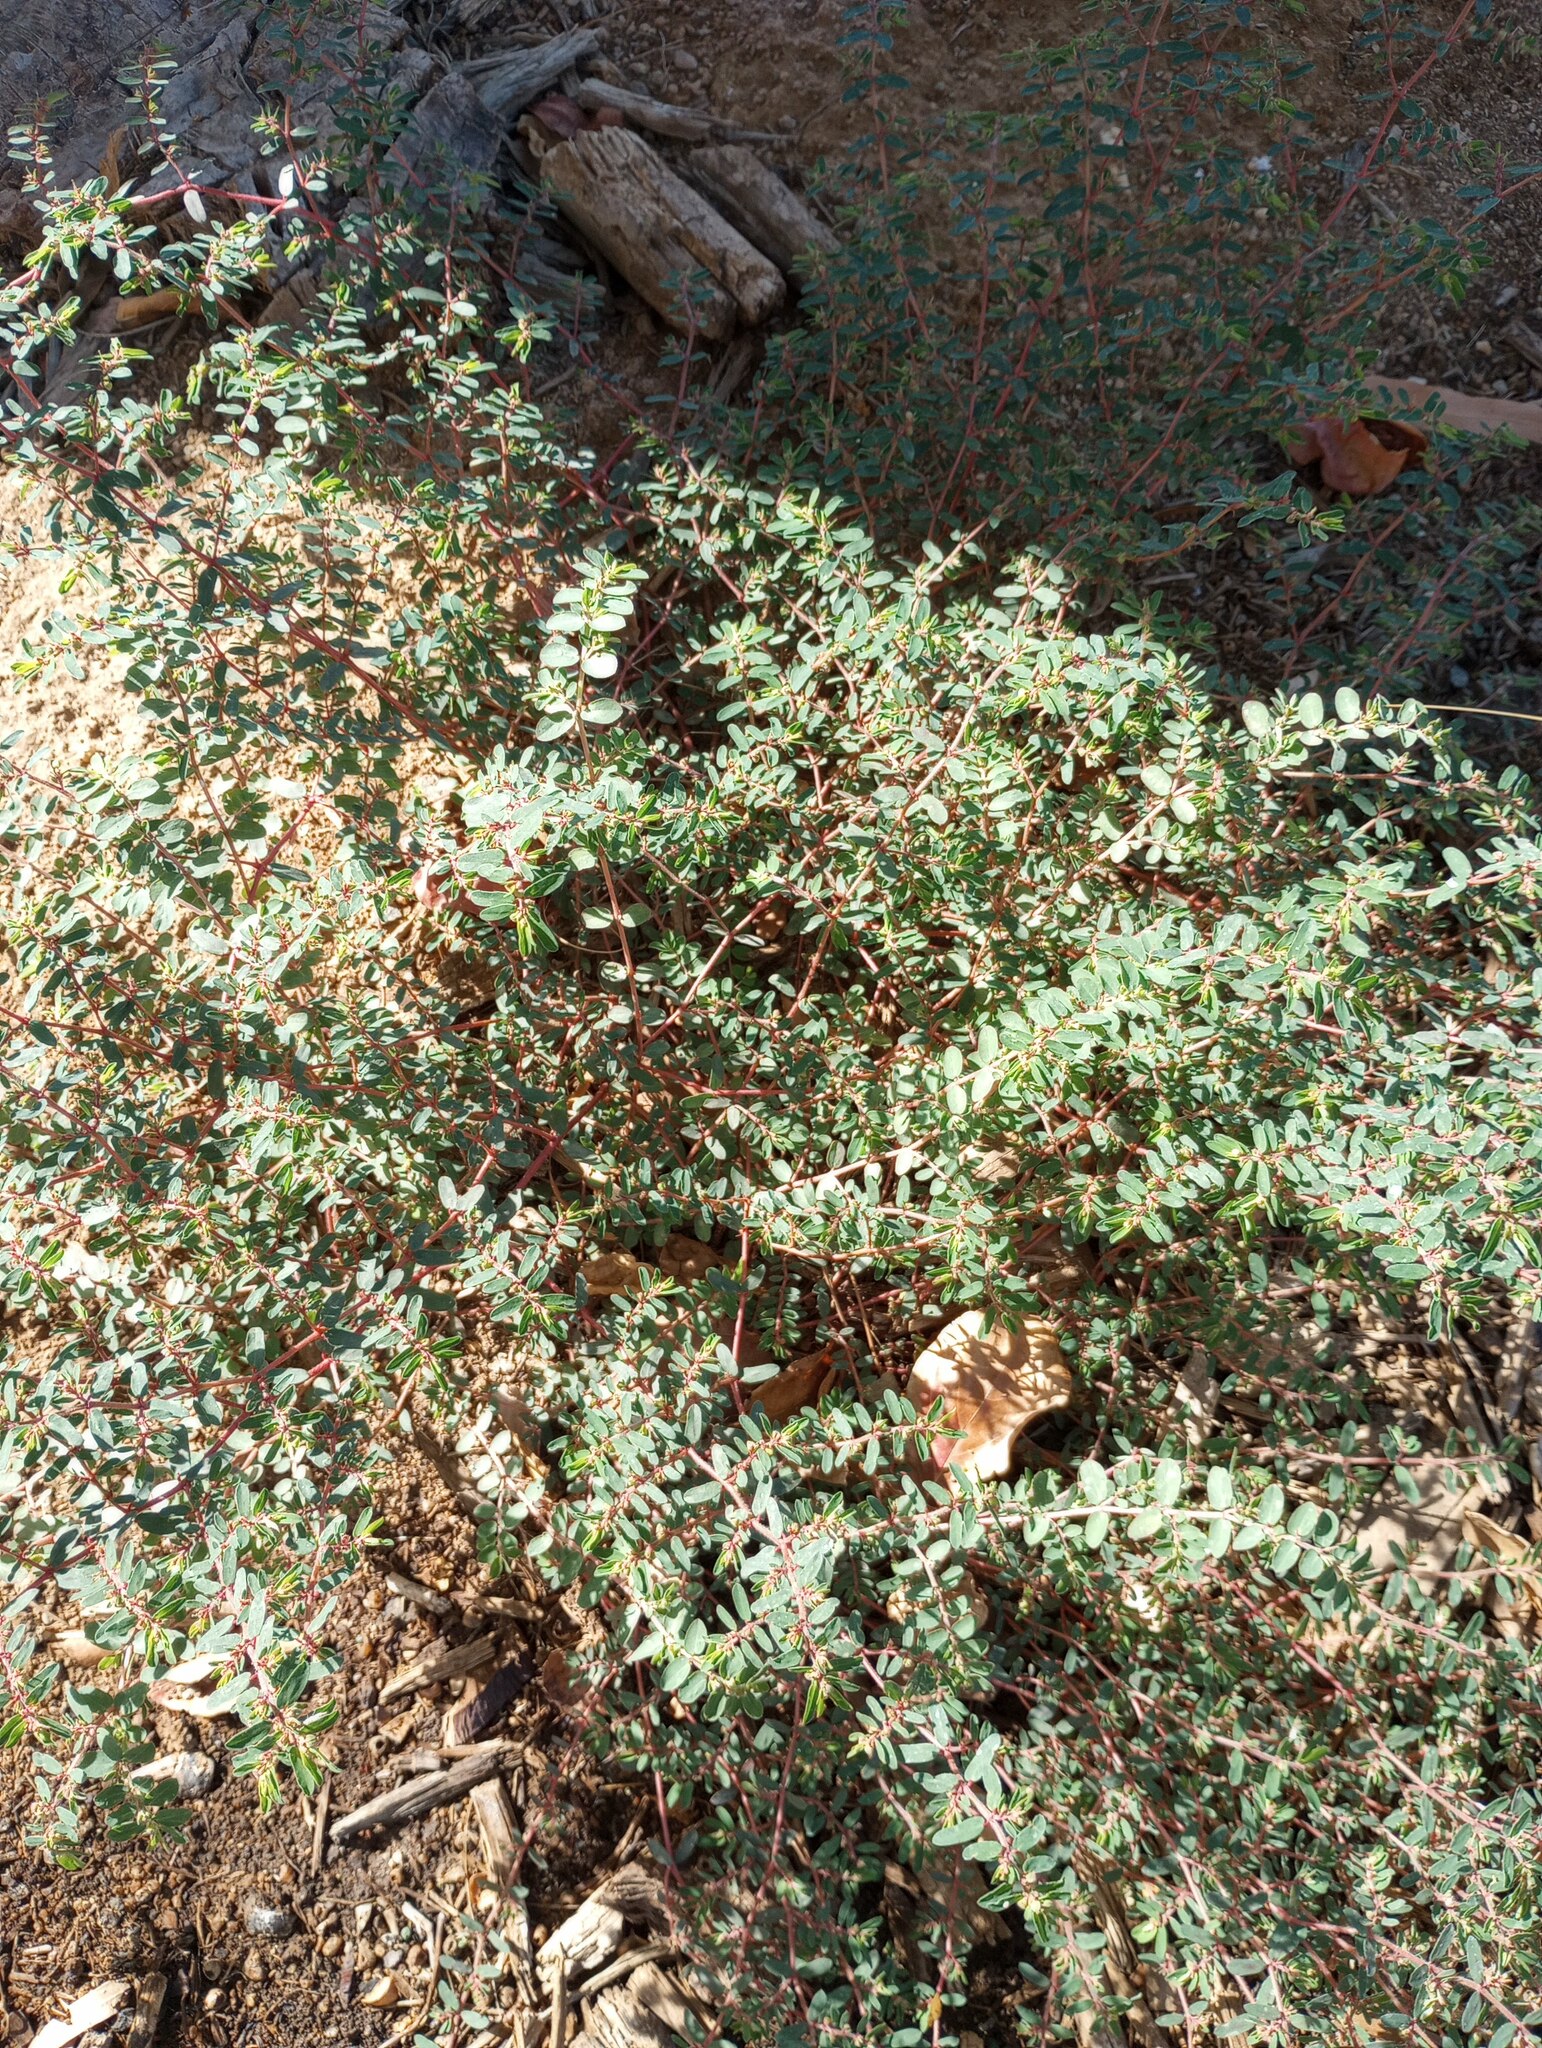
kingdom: Plantae
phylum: Tracheophyta
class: Magnoliopsida
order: Malpighiales
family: Euphorbiaceae
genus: Euphorbia
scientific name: Euphorbia maculata
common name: Spotted spurge
